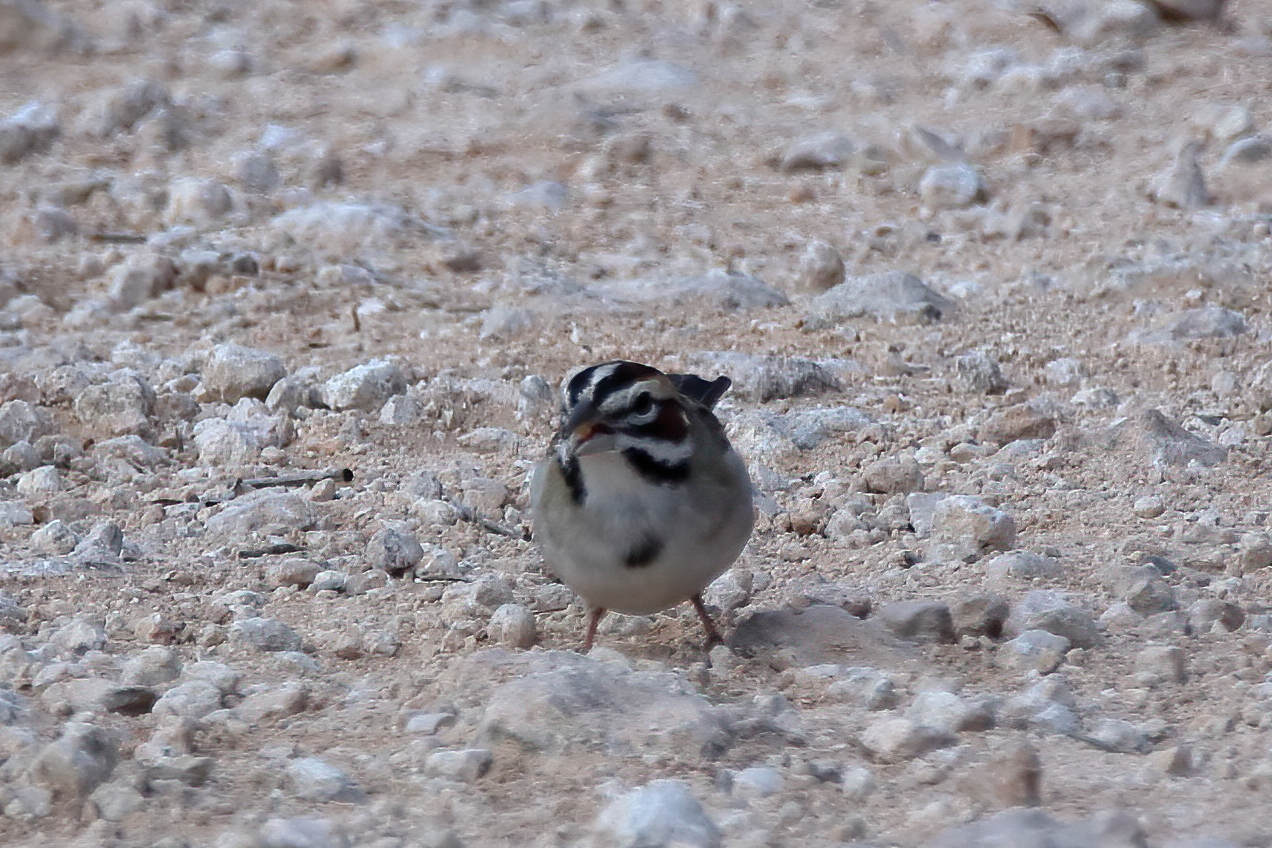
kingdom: Animalia
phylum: Chordata
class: Aves
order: Passeriformes
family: Passerellidae
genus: Chondestes
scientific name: Chondestes grammacus
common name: Lark sparrow
